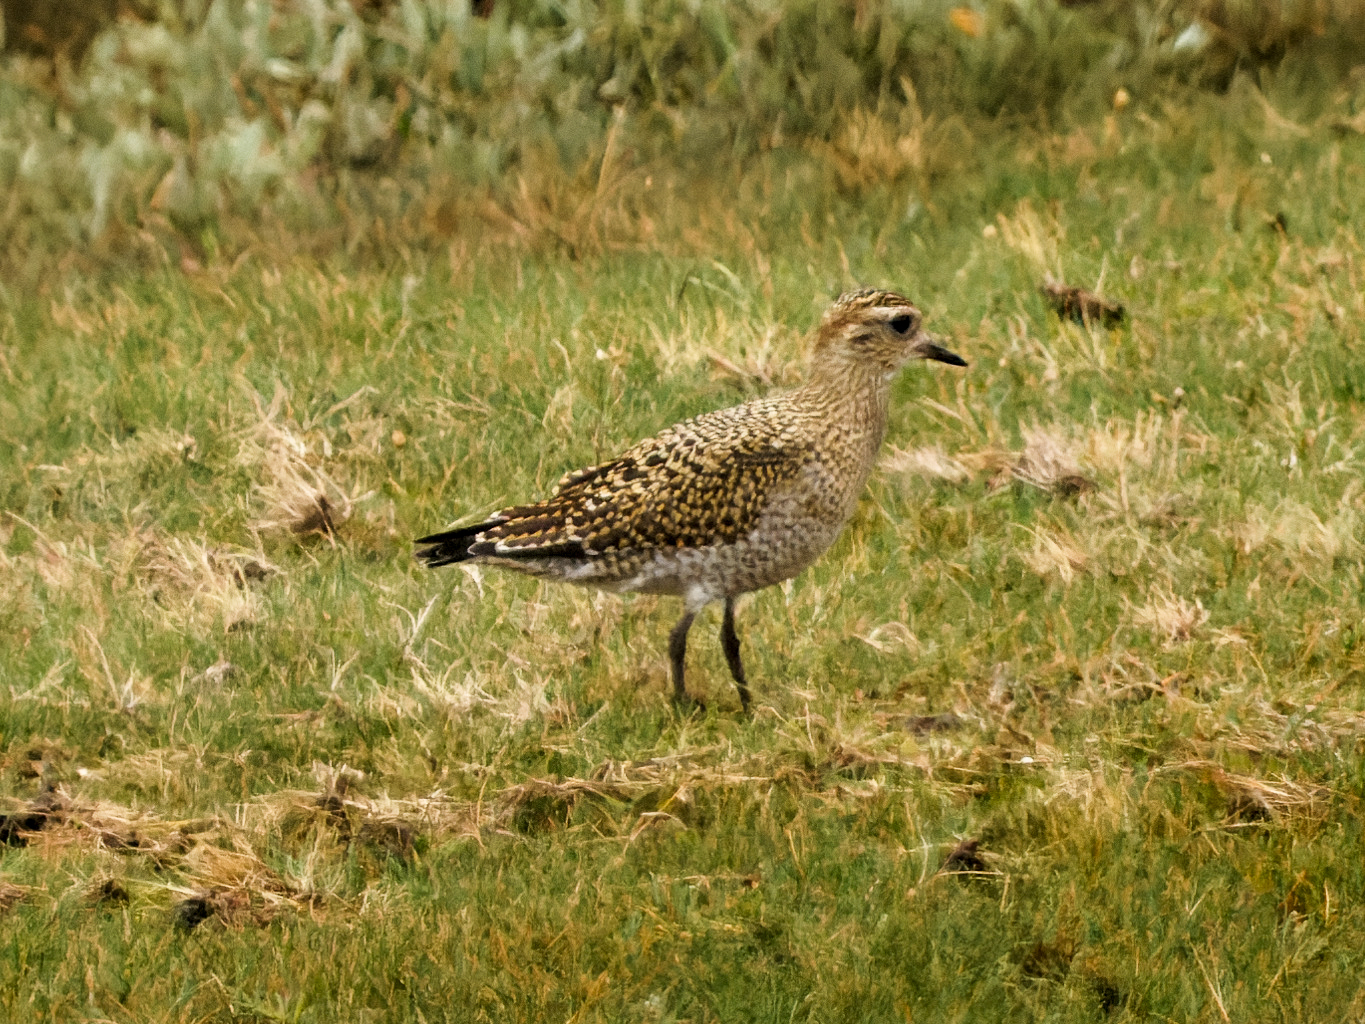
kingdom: Animalia
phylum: Chordata
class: Aves
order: Charadriiformes
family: Charadriidae
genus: Pluvialis
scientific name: Pluvialis apricaria
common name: European golden plover
